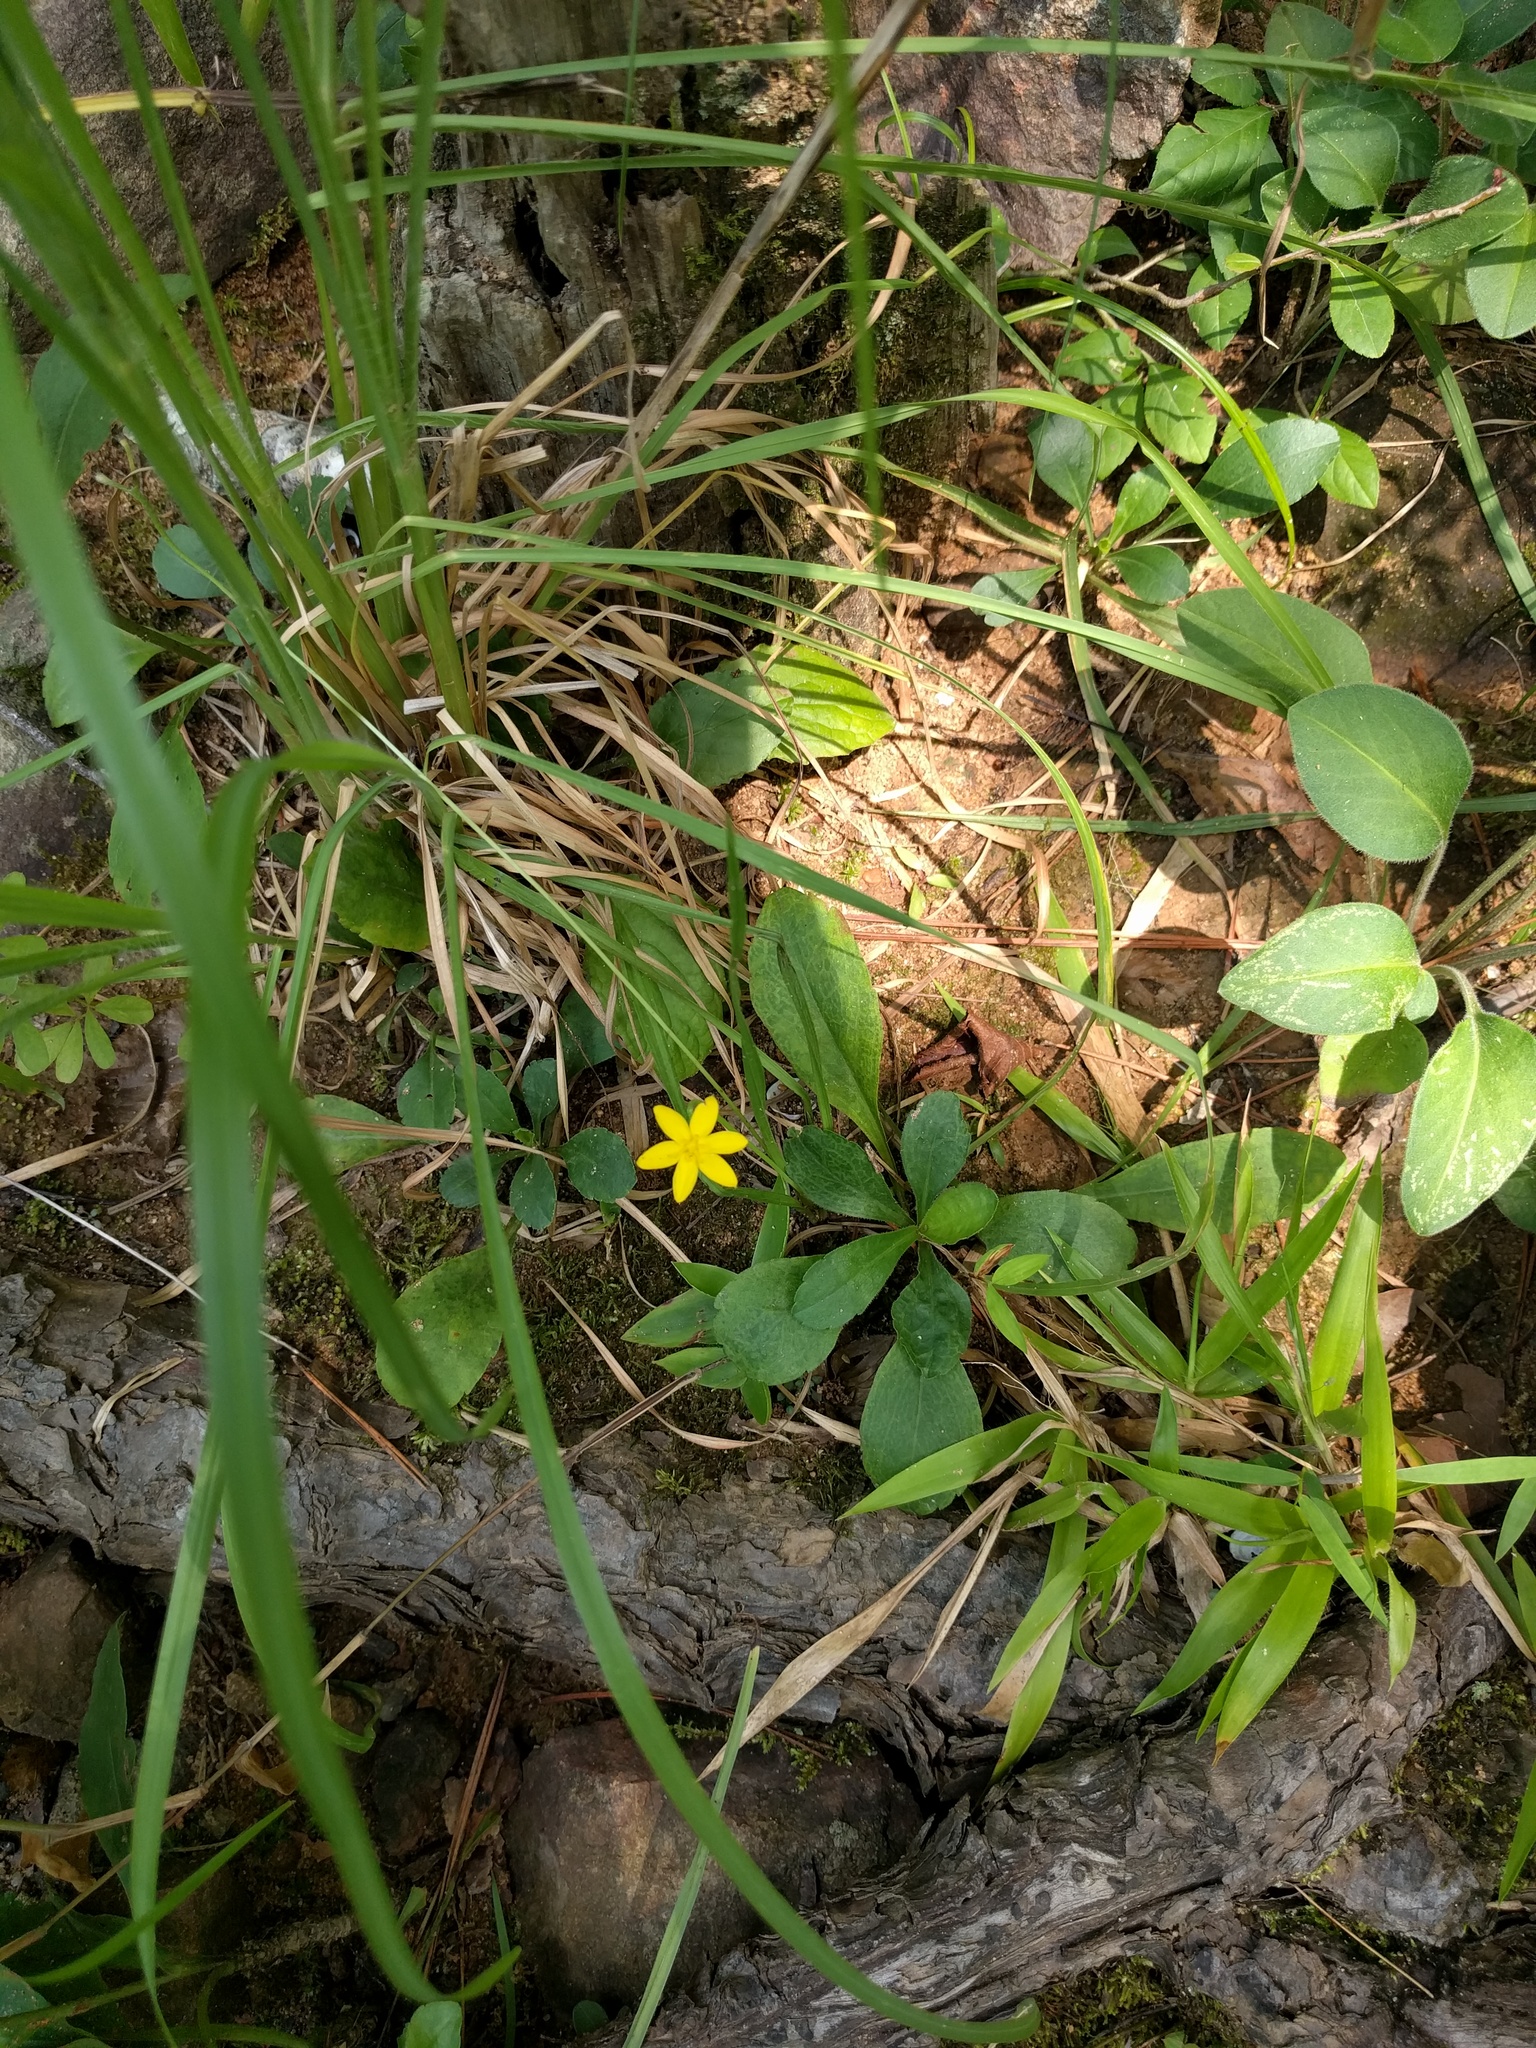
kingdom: Plantae
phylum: Tracheophyta
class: Liliopsida
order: Asparagales
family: Hypoxidaceae
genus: Hypoxis
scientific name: Hypoxis hirsuta
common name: Common goldstar
